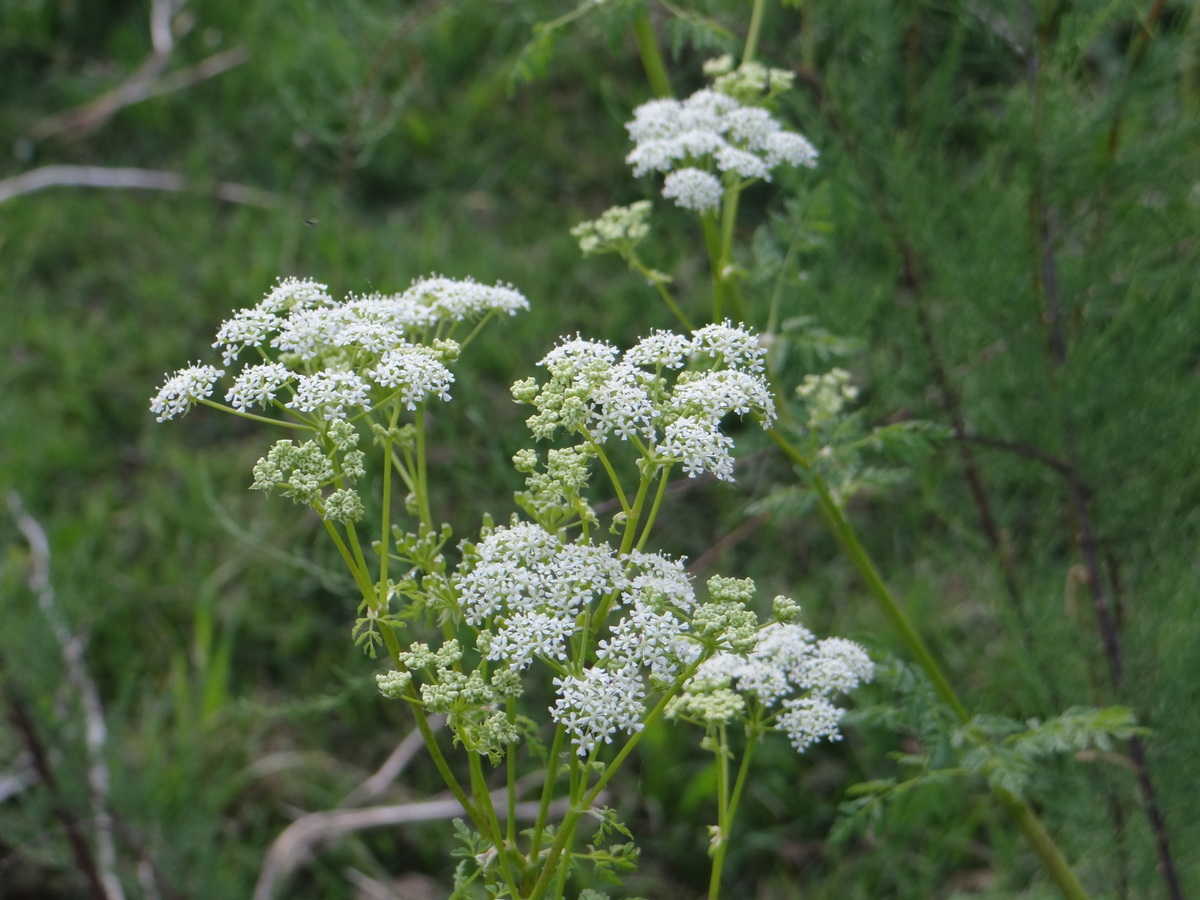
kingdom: Plantae
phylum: Tracheophyta
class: Magnoliopsida
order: Apiales
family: Apiaceae
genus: Conium
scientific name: Conium maculatum
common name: Hemlock
